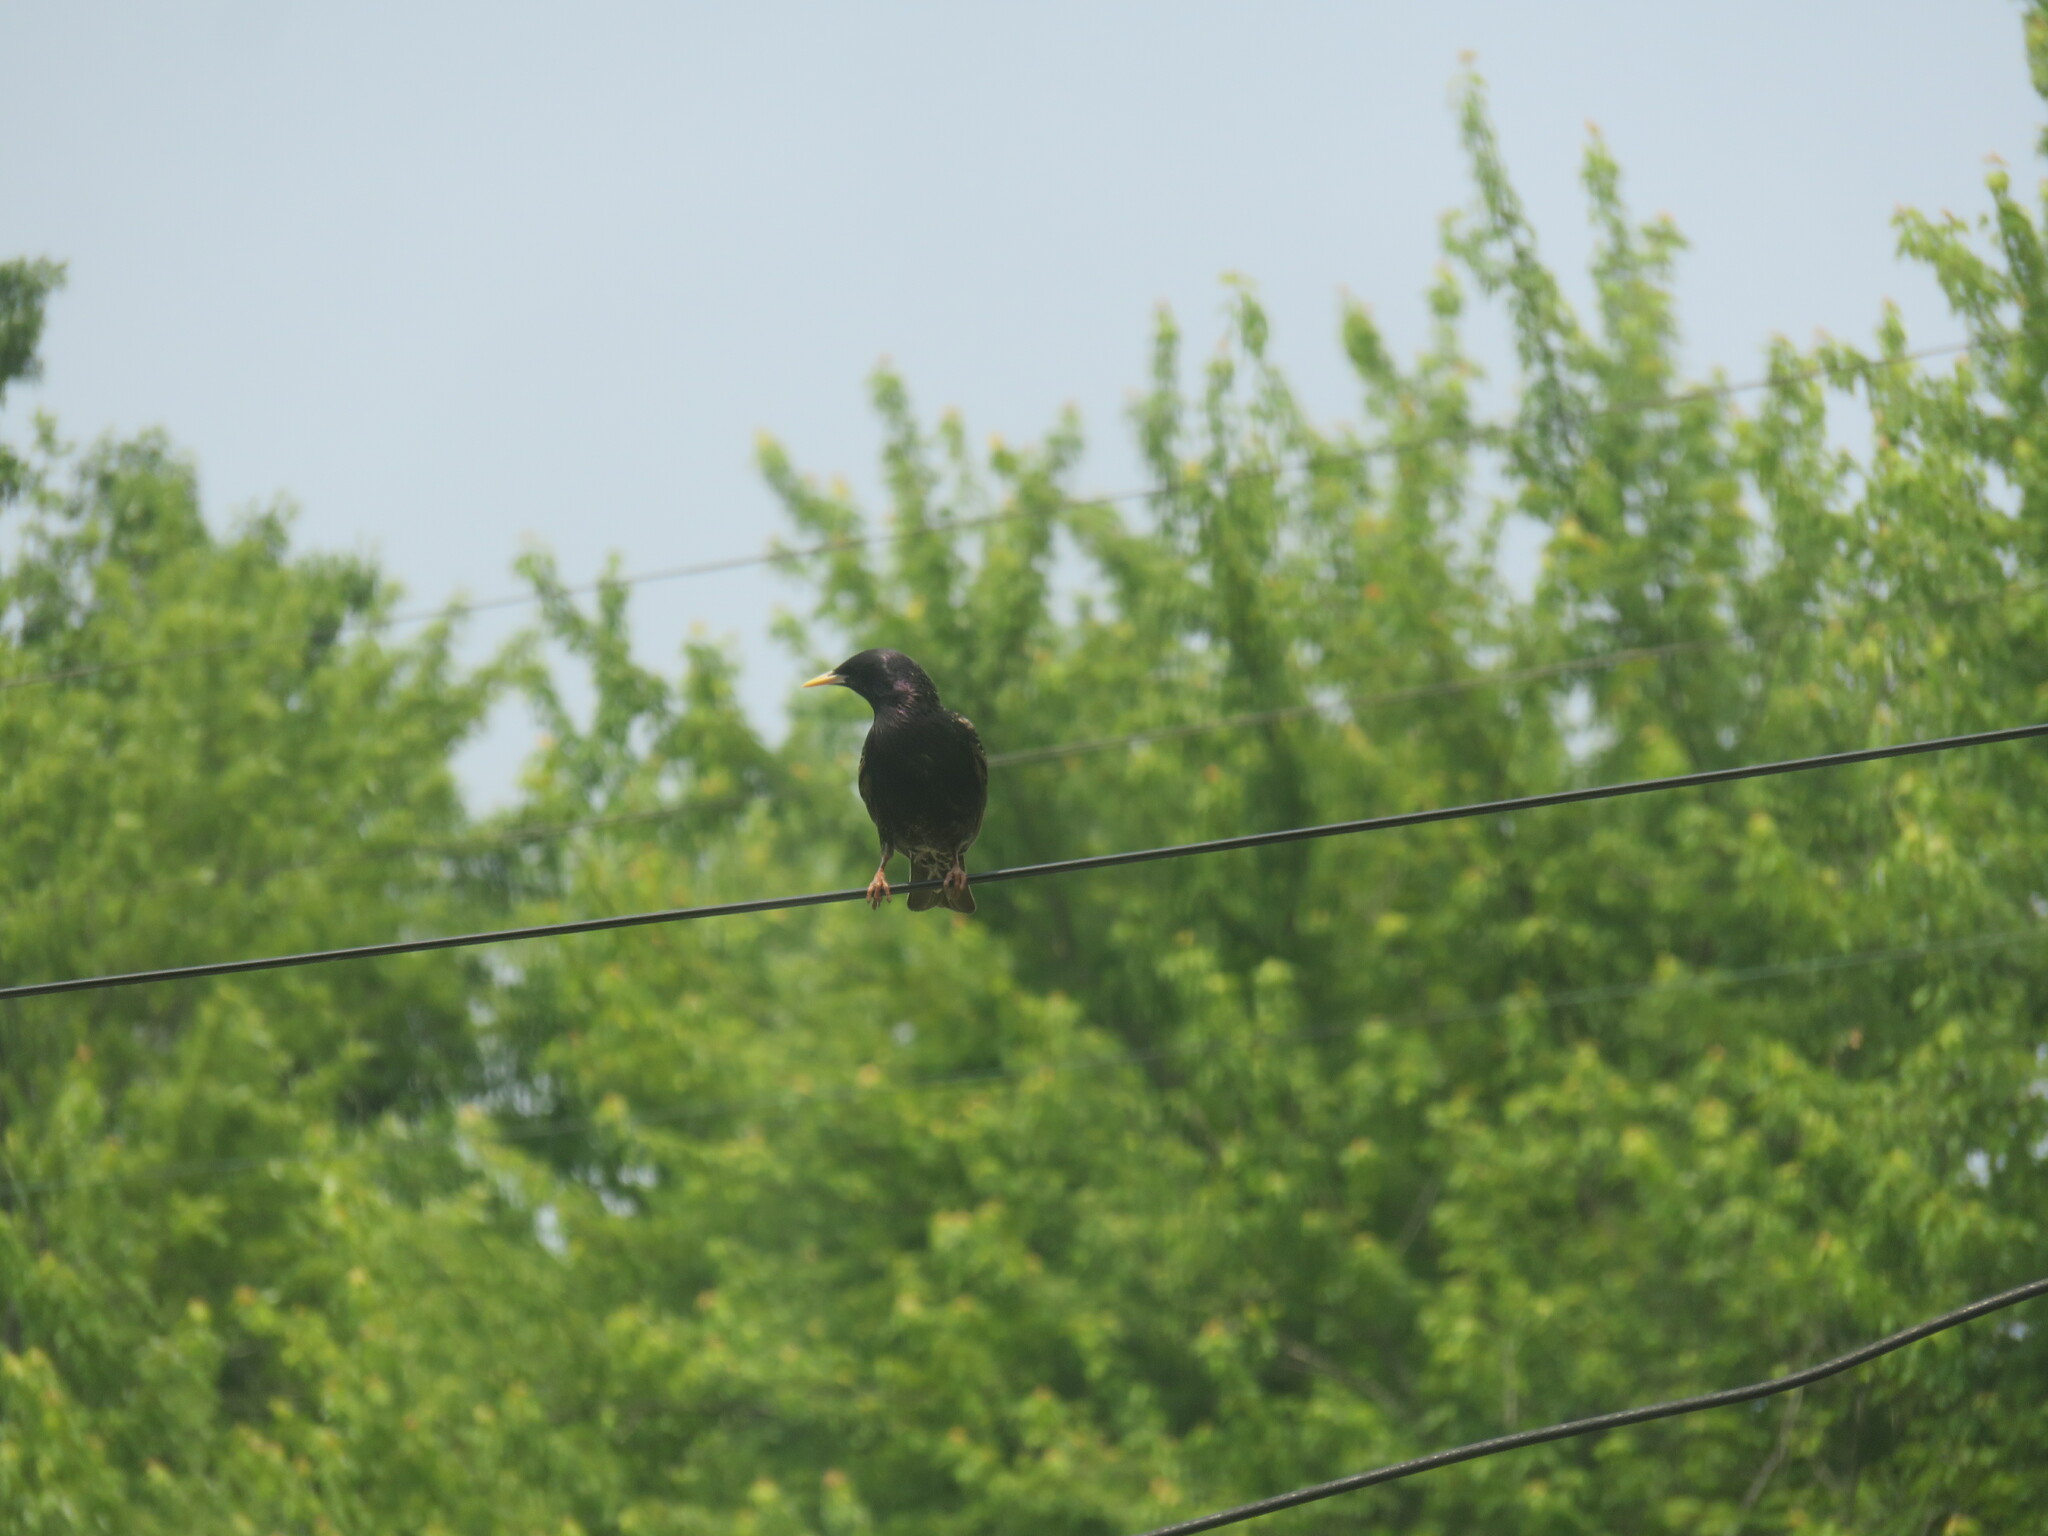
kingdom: Animalia
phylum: Chordata
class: Aves
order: Passeriformes
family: Sturnidae
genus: Sturnus
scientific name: Sturnus vulgaris
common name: Common starling
